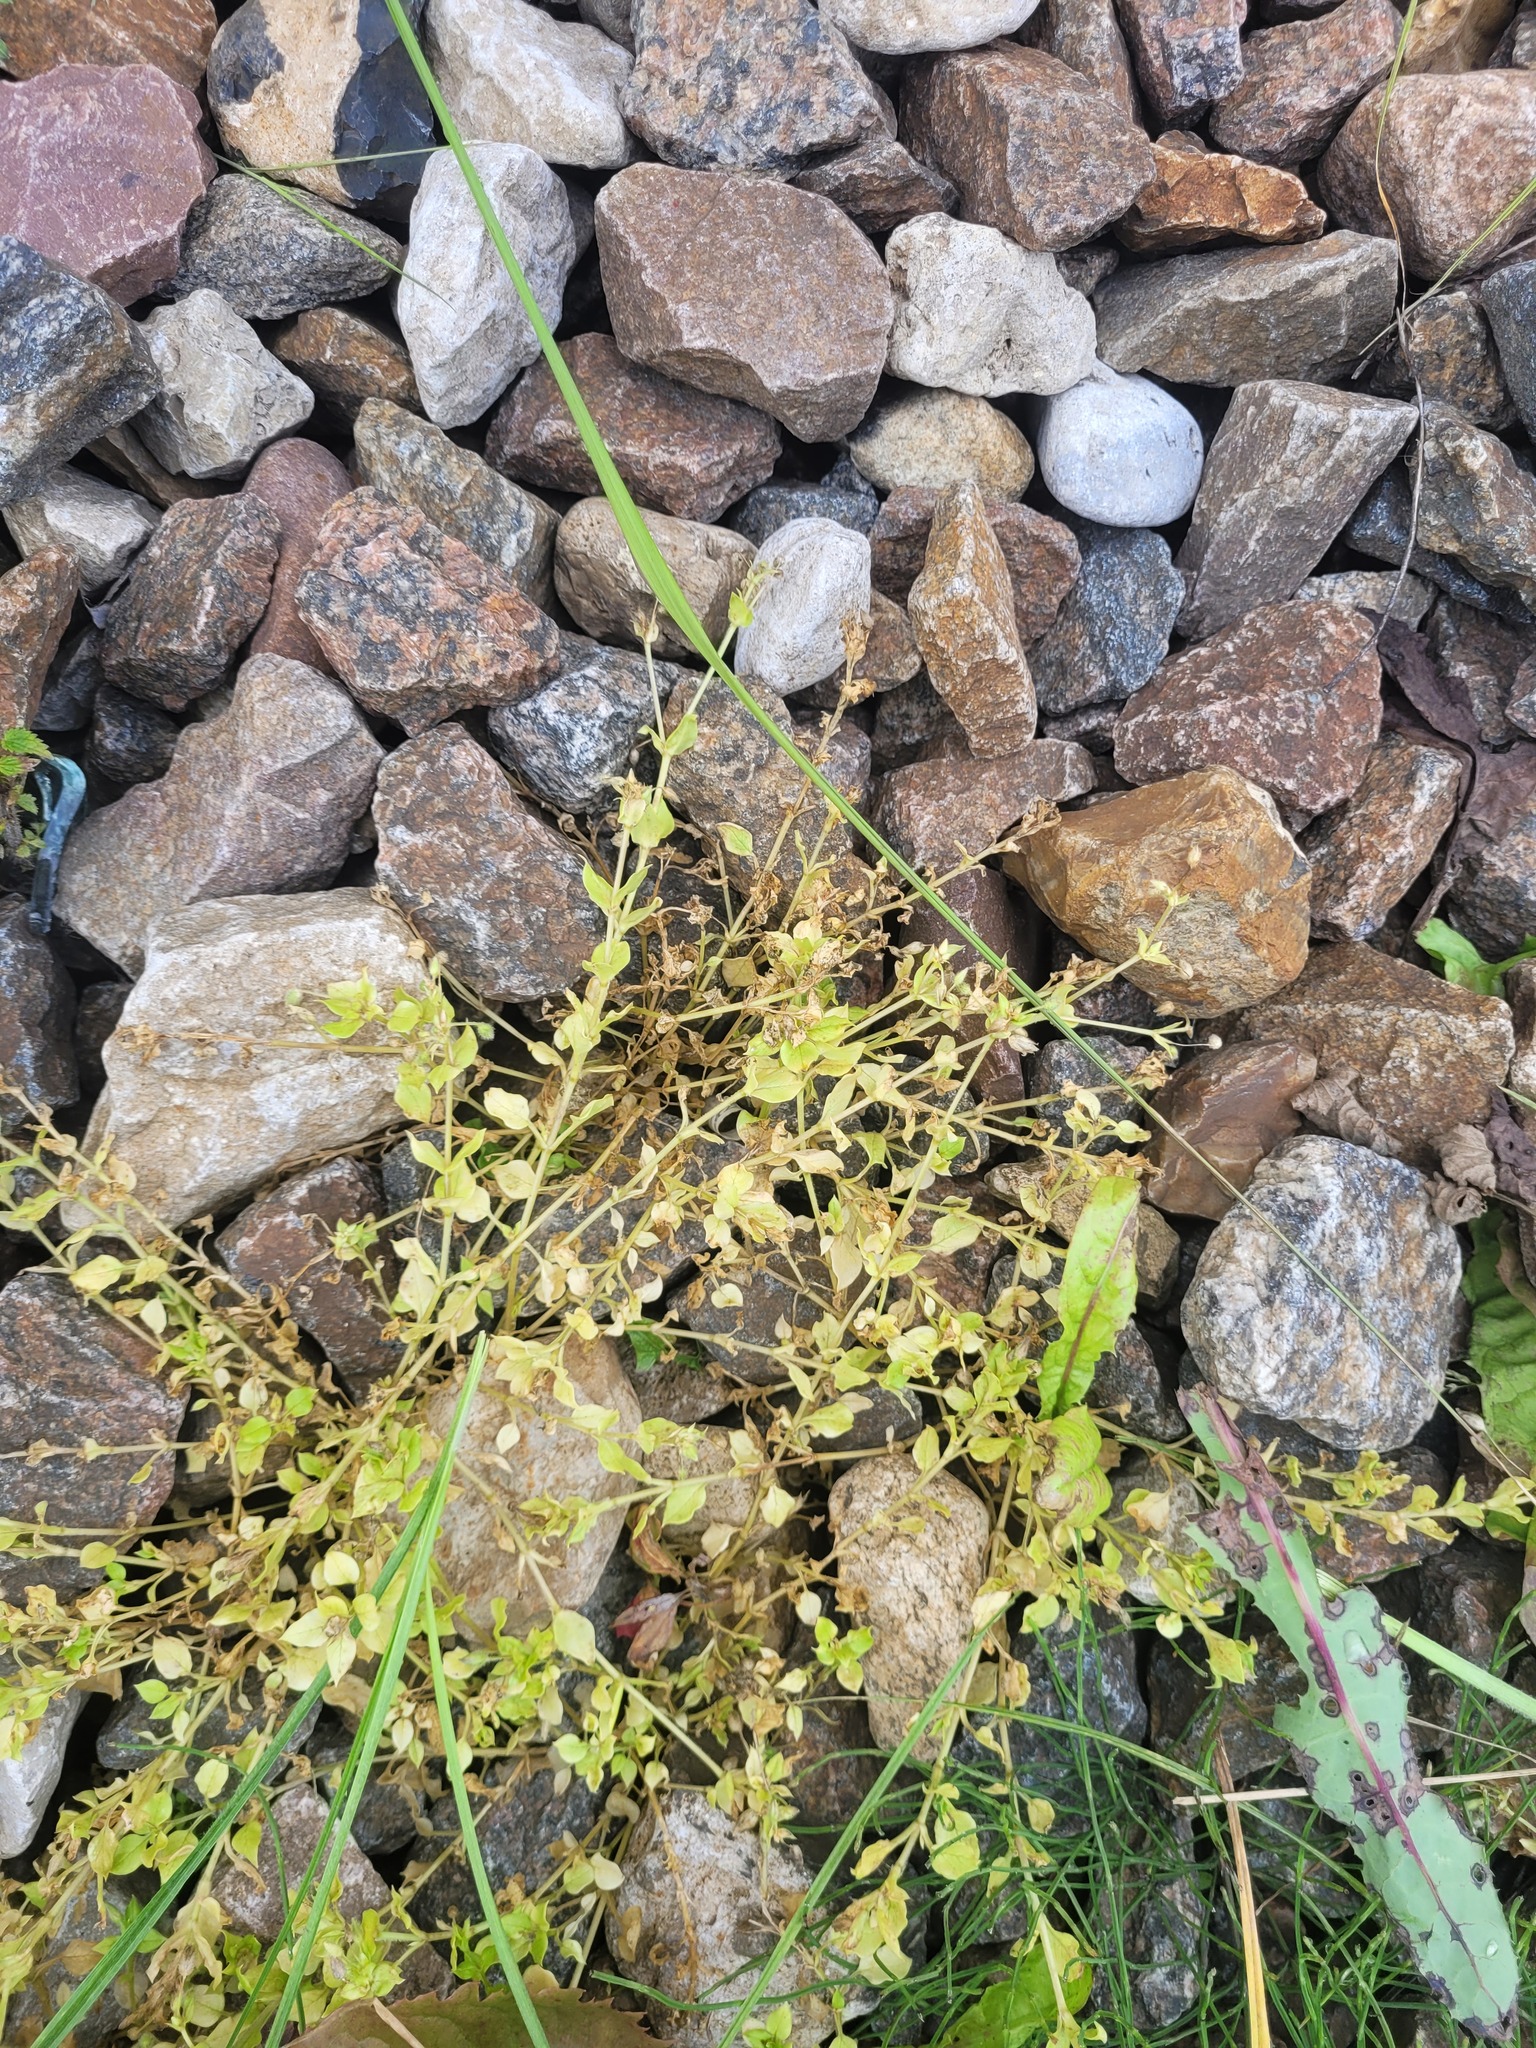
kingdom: Plantae
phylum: Tracheophyta
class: Magnoliopsida
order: Caryophyllales
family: Caryophyllaceae
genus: Stellaria
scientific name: Stellaria media
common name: Common chickweed
